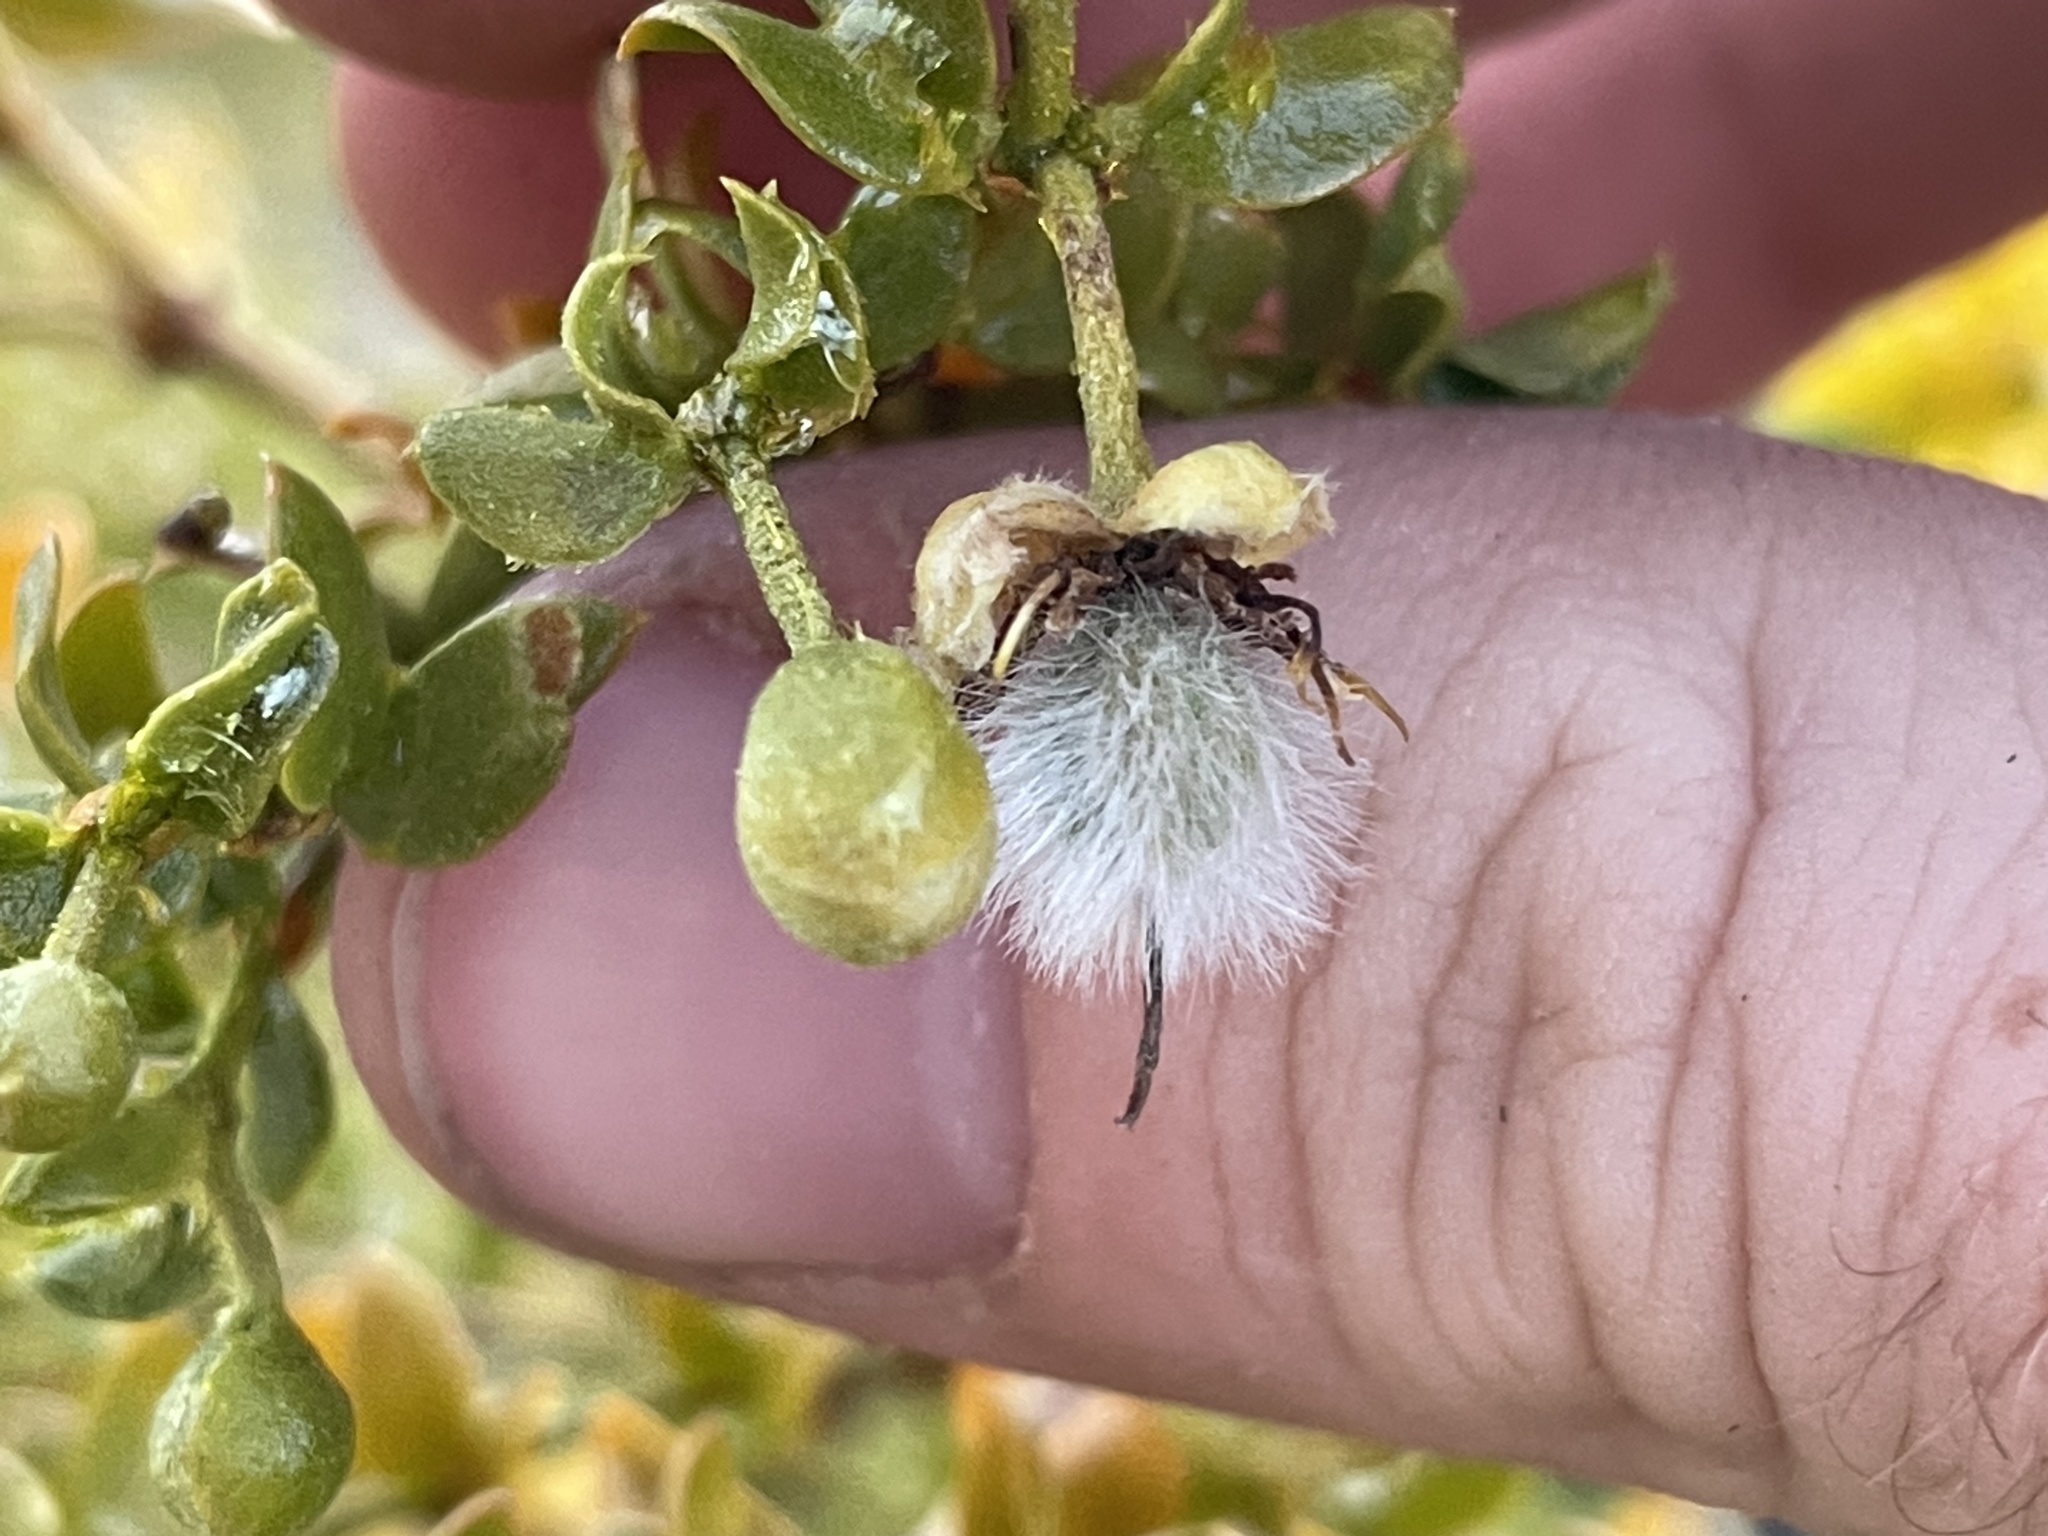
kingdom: Plantae
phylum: Tracheophyta
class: Magnoliopsida
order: Zygophyllales
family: Zygophyllaceae
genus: Larrea
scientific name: Larrea tridentata
